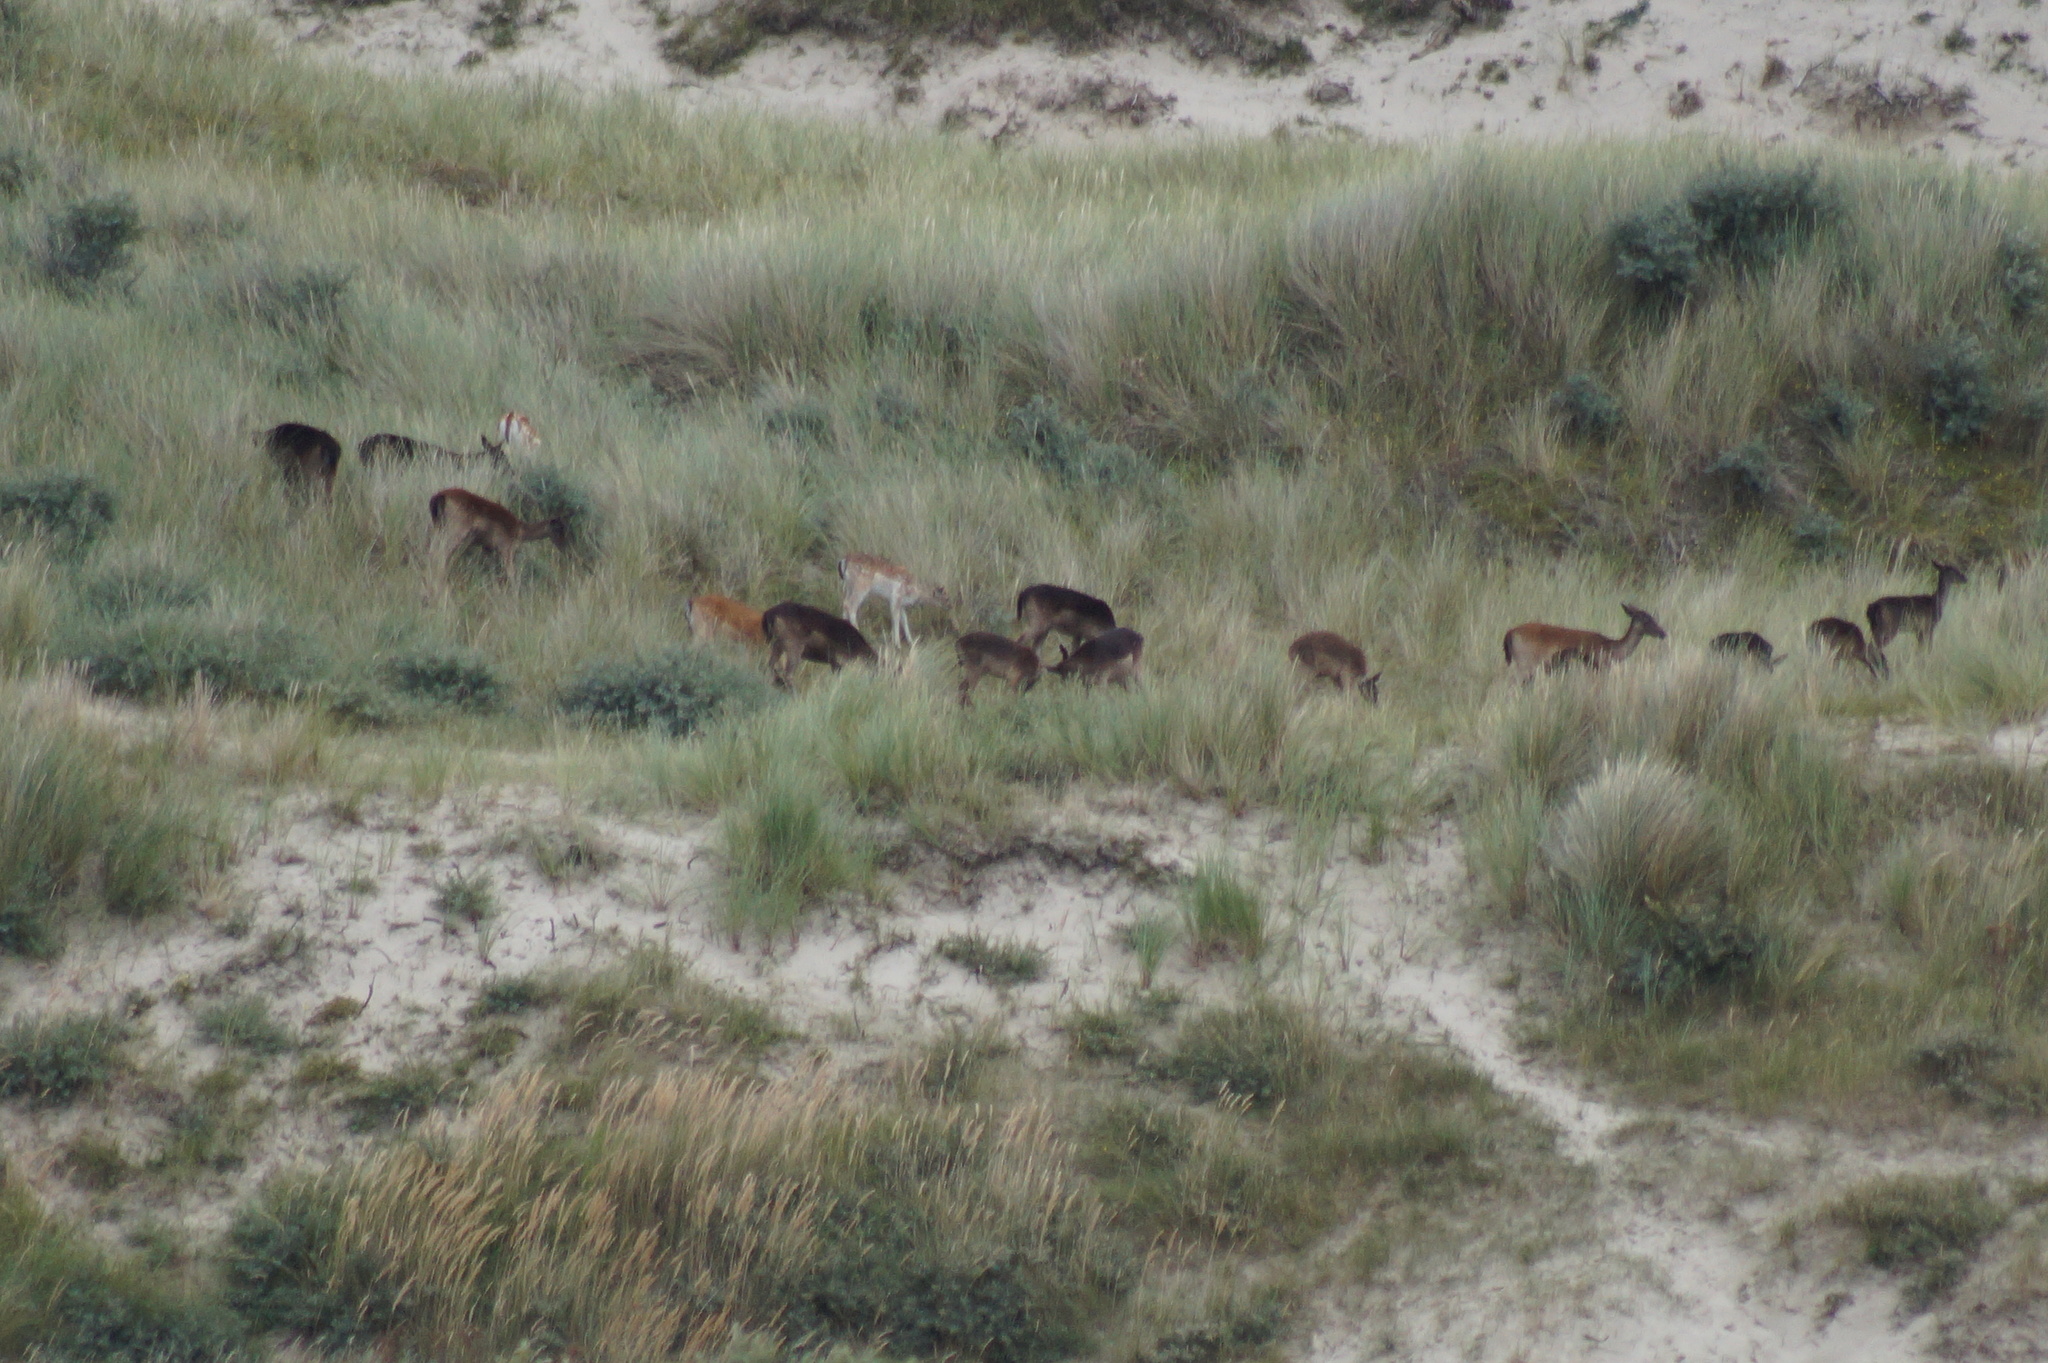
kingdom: Animalia
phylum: Chordata
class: Mammalia
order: Artiodactyla
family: Cervidae
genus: Dama
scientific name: Dama dama
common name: Fallow deer
